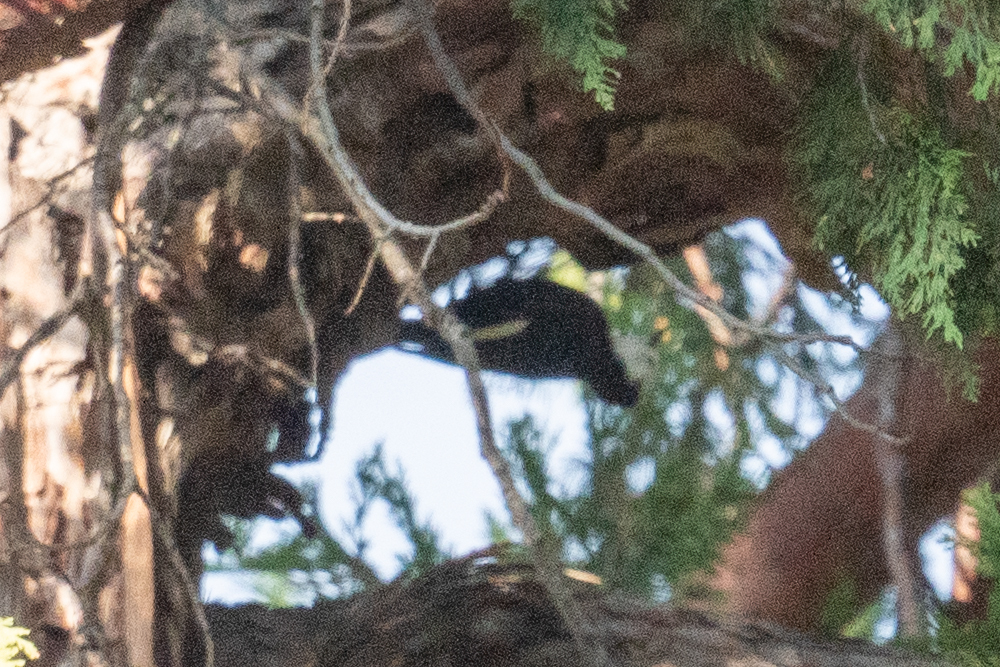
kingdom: Animalia
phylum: Chordata
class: Aves
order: Piciformes
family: Picidae
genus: Leuconotopicus
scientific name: Leuconotopicus albolarvatus
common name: White-headed woodpecker
